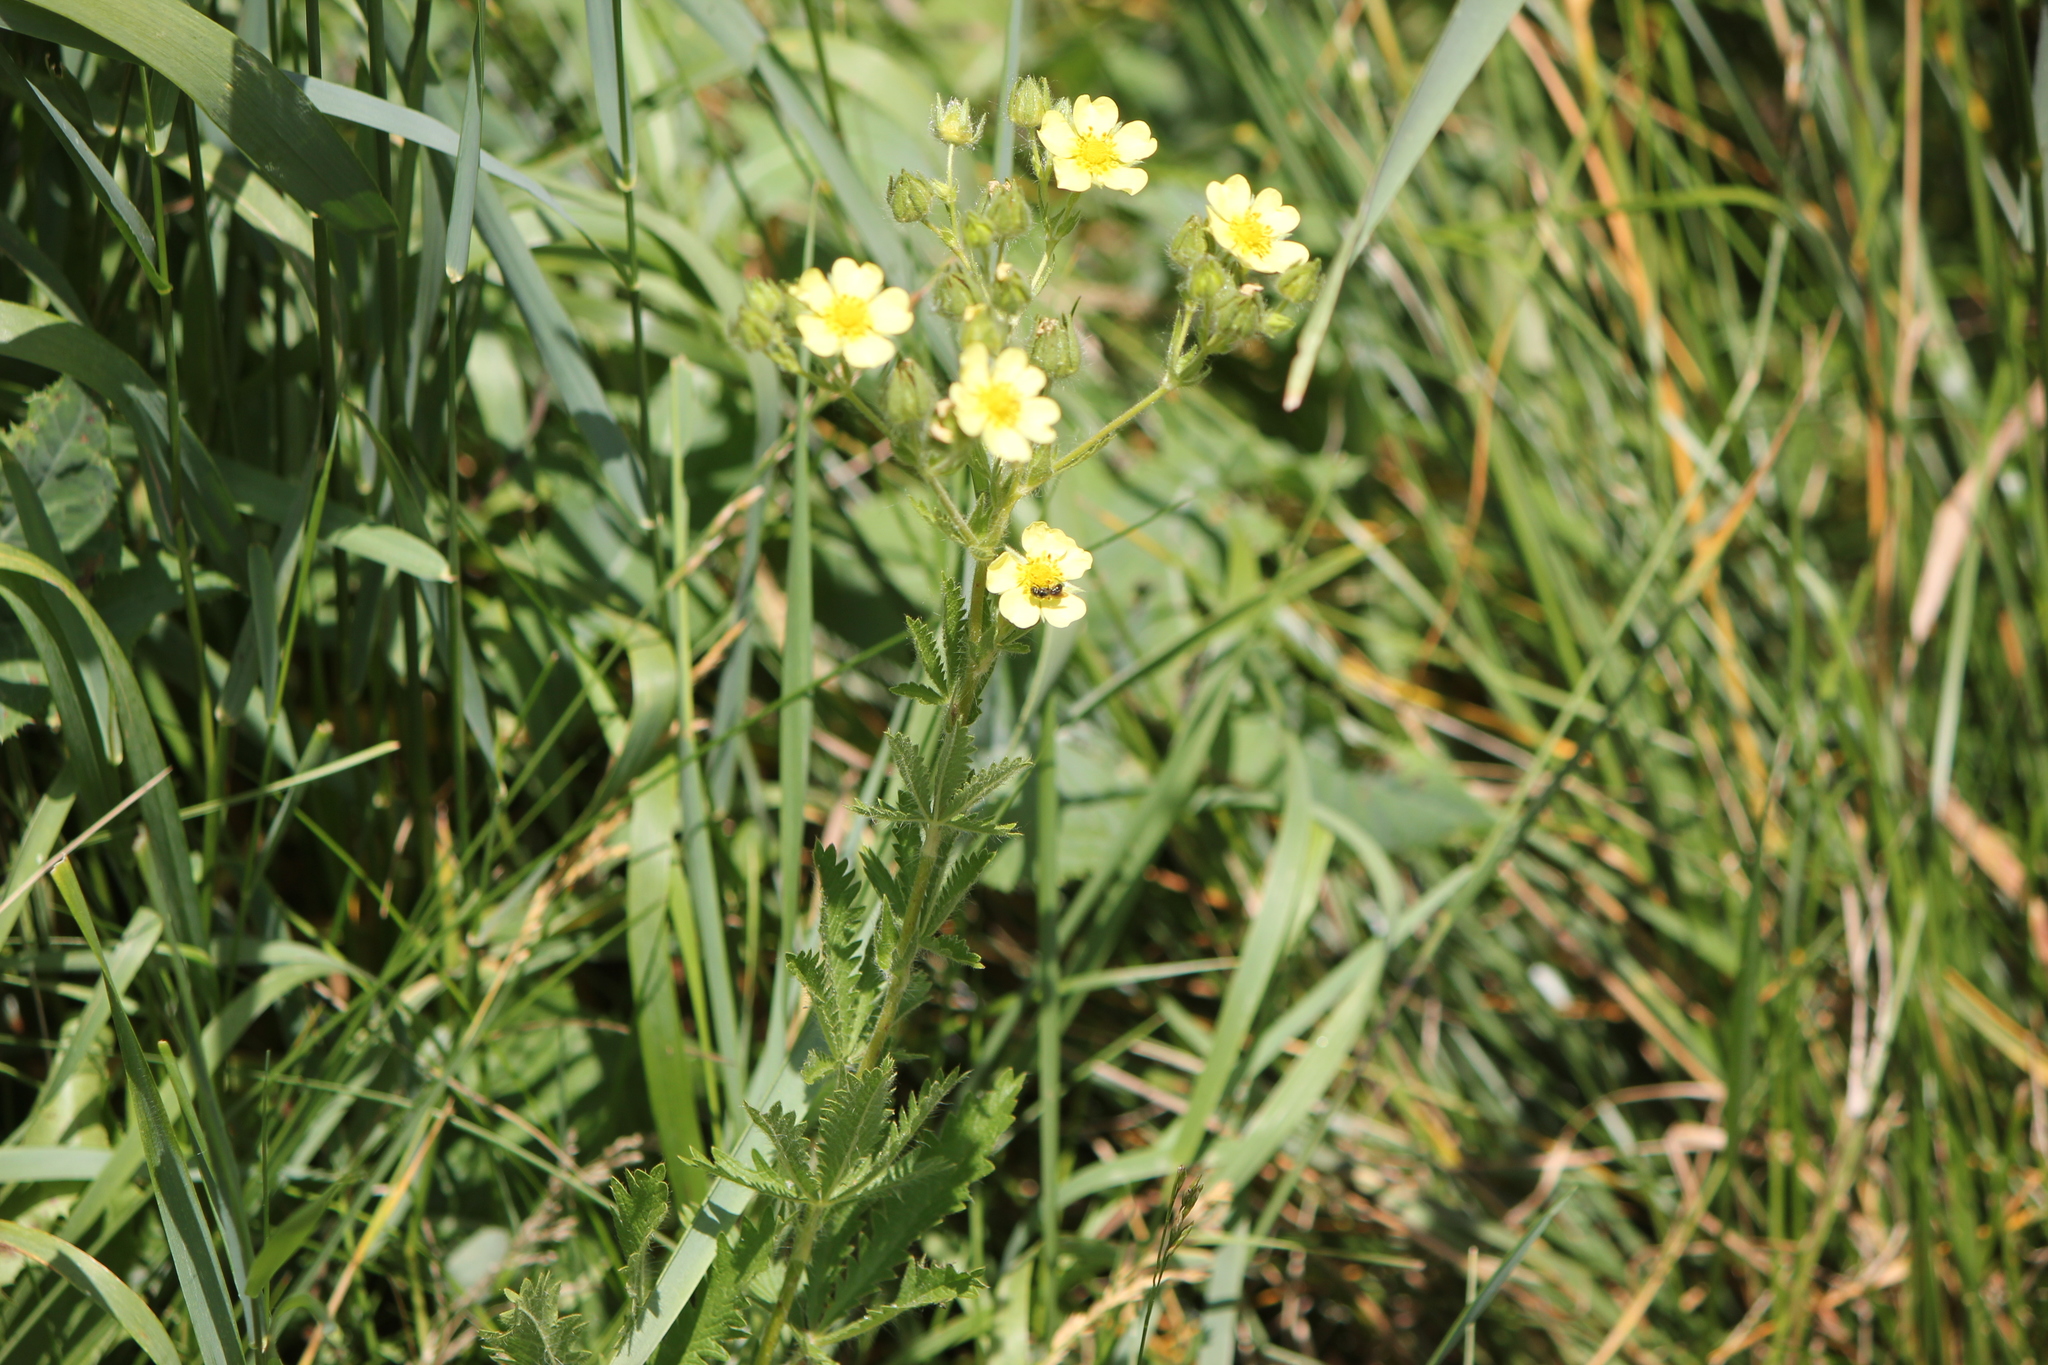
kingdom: Plantae
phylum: Tracheophyta
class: Magnoliopsida
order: Rosales
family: Rosaceae
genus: Potentilla
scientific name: Potentilla recta
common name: Sulphur cinquefoil
